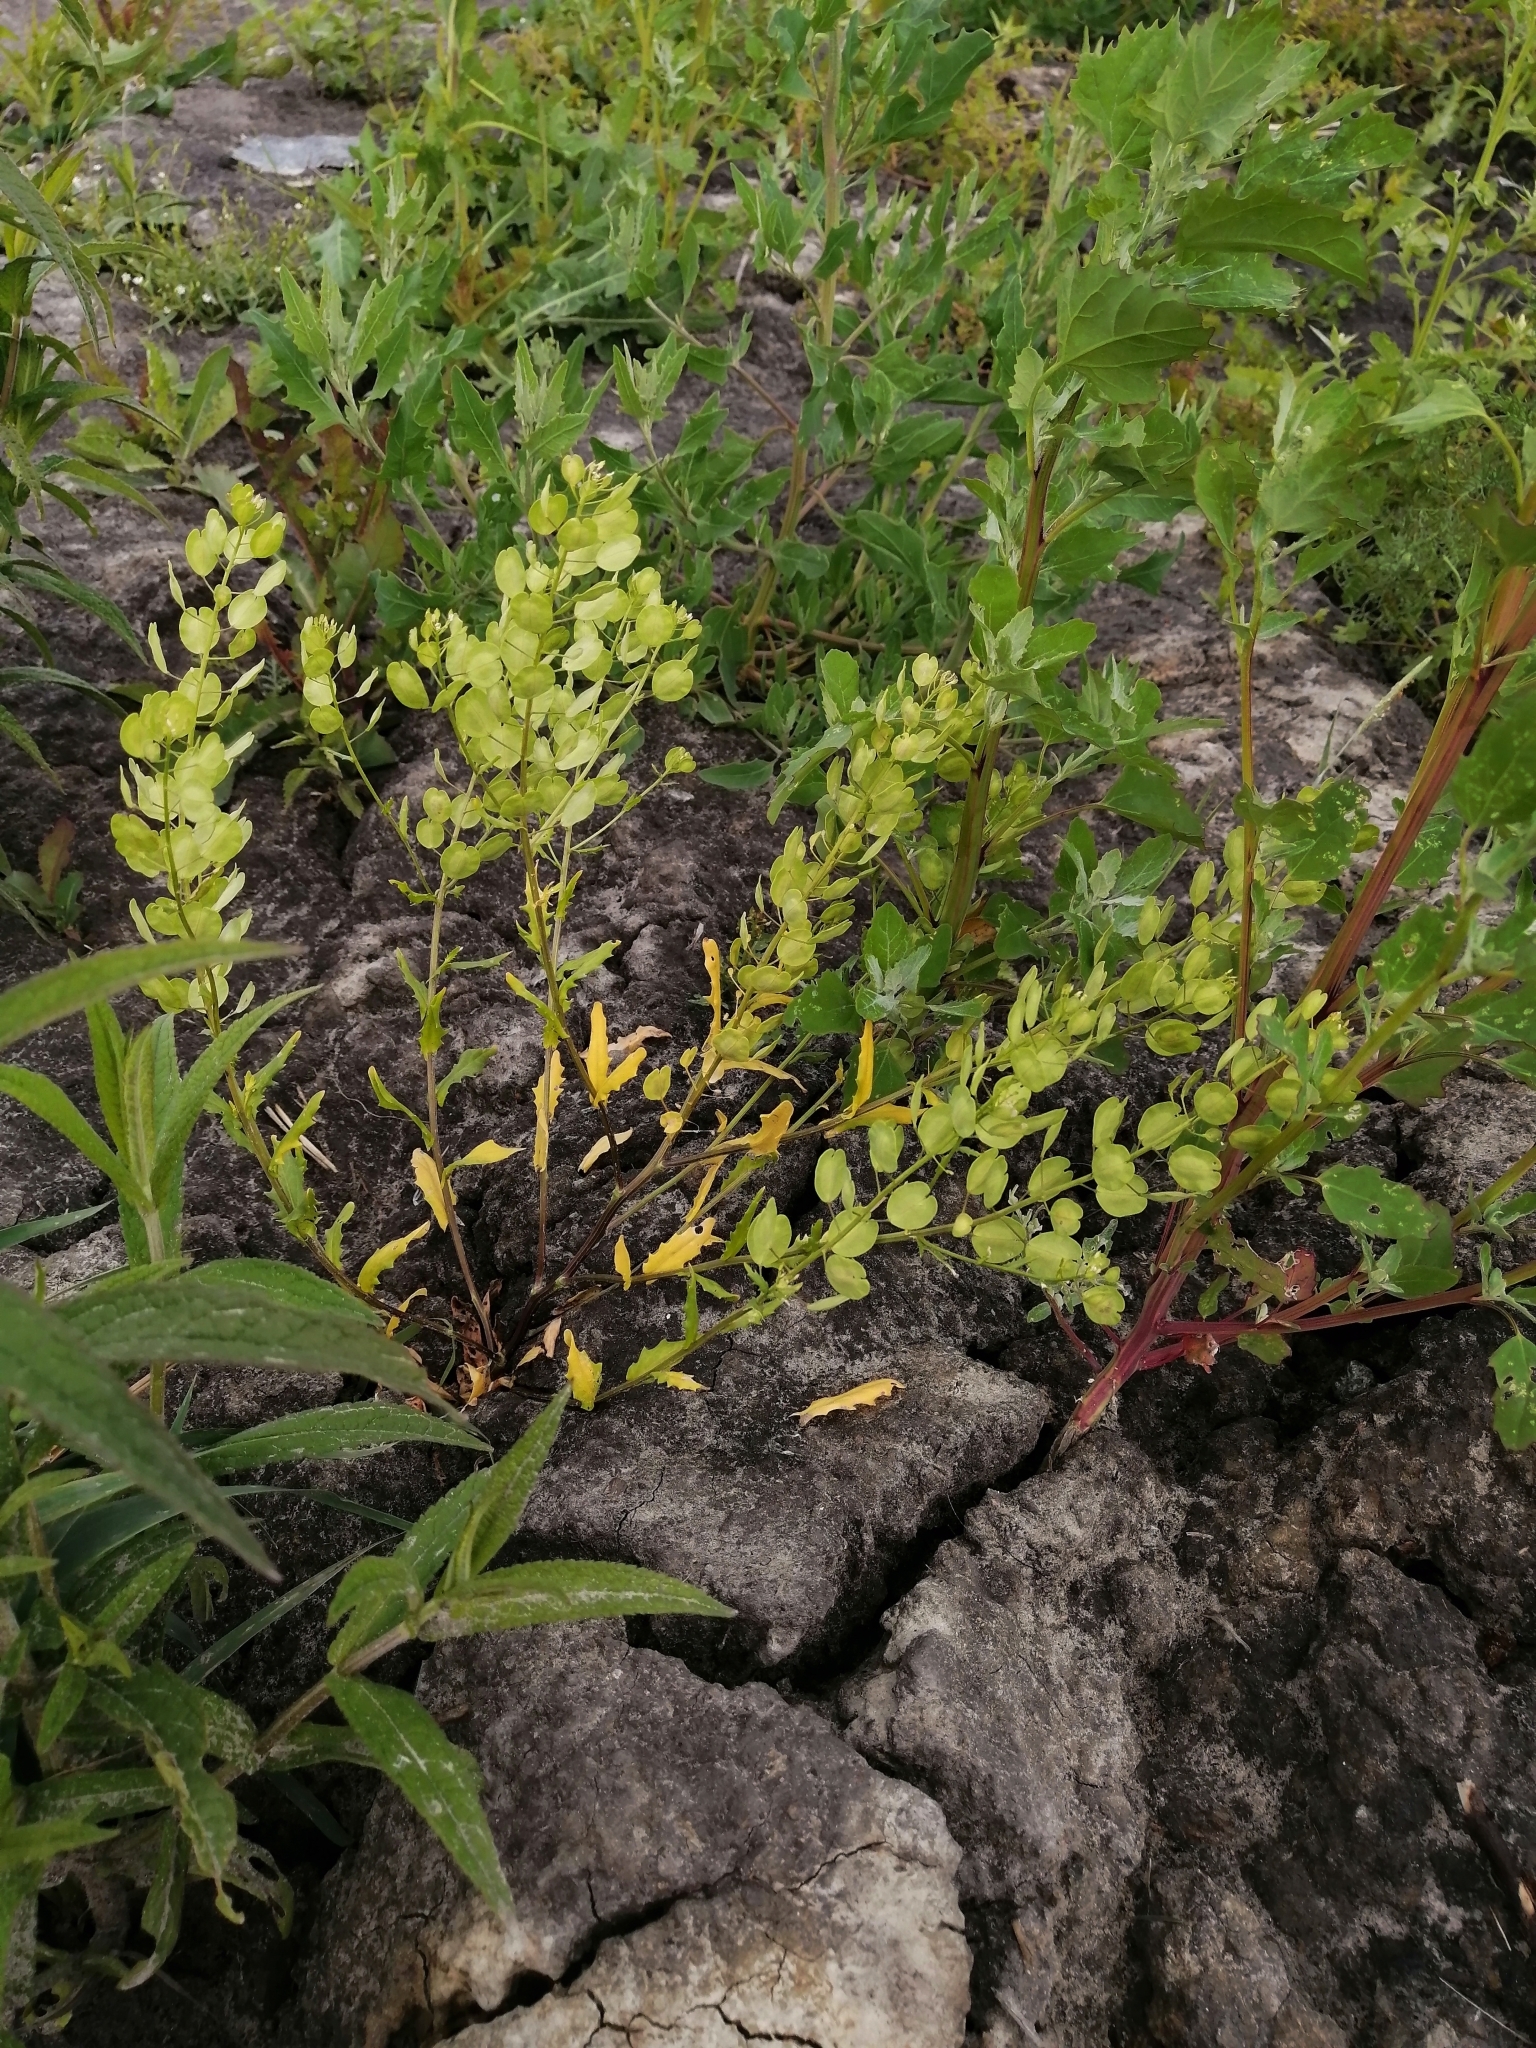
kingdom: Plantae
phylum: Tracheophyta
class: Magnoliopsida
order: Brassicales
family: Brassicaceae
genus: Thlaspi
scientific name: Thlaspi arvense
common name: Field pennycress
